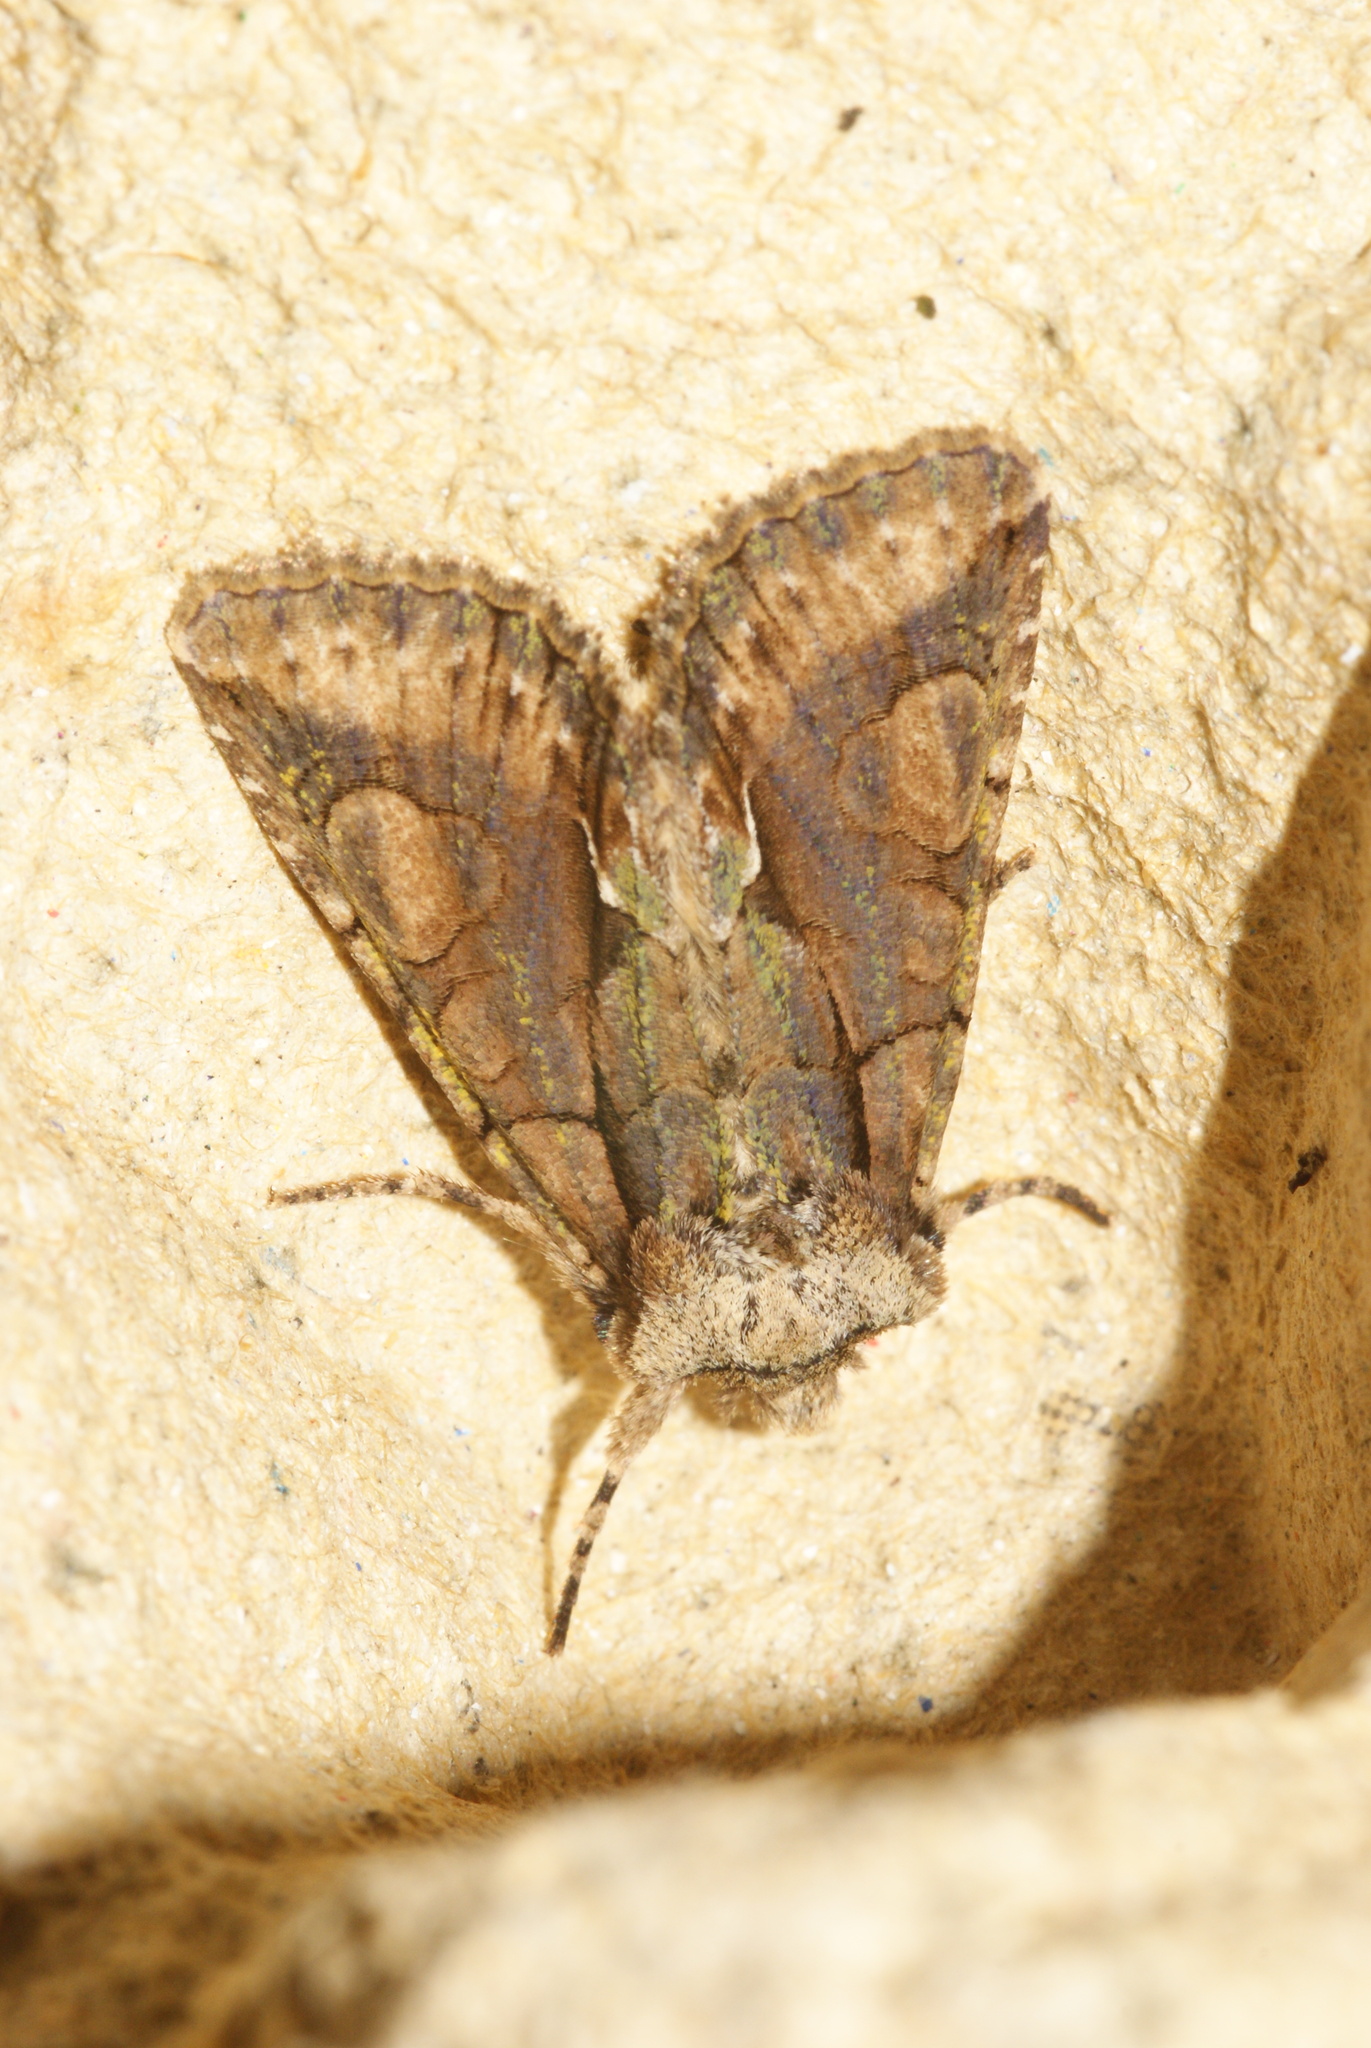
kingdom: Animalia
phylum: Arthropoda
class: Insecta
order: Lepidoptera
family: Noctuidae
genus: Allophyes
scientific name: Allophyes oxyacanthae
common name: Green-brindled crescent
